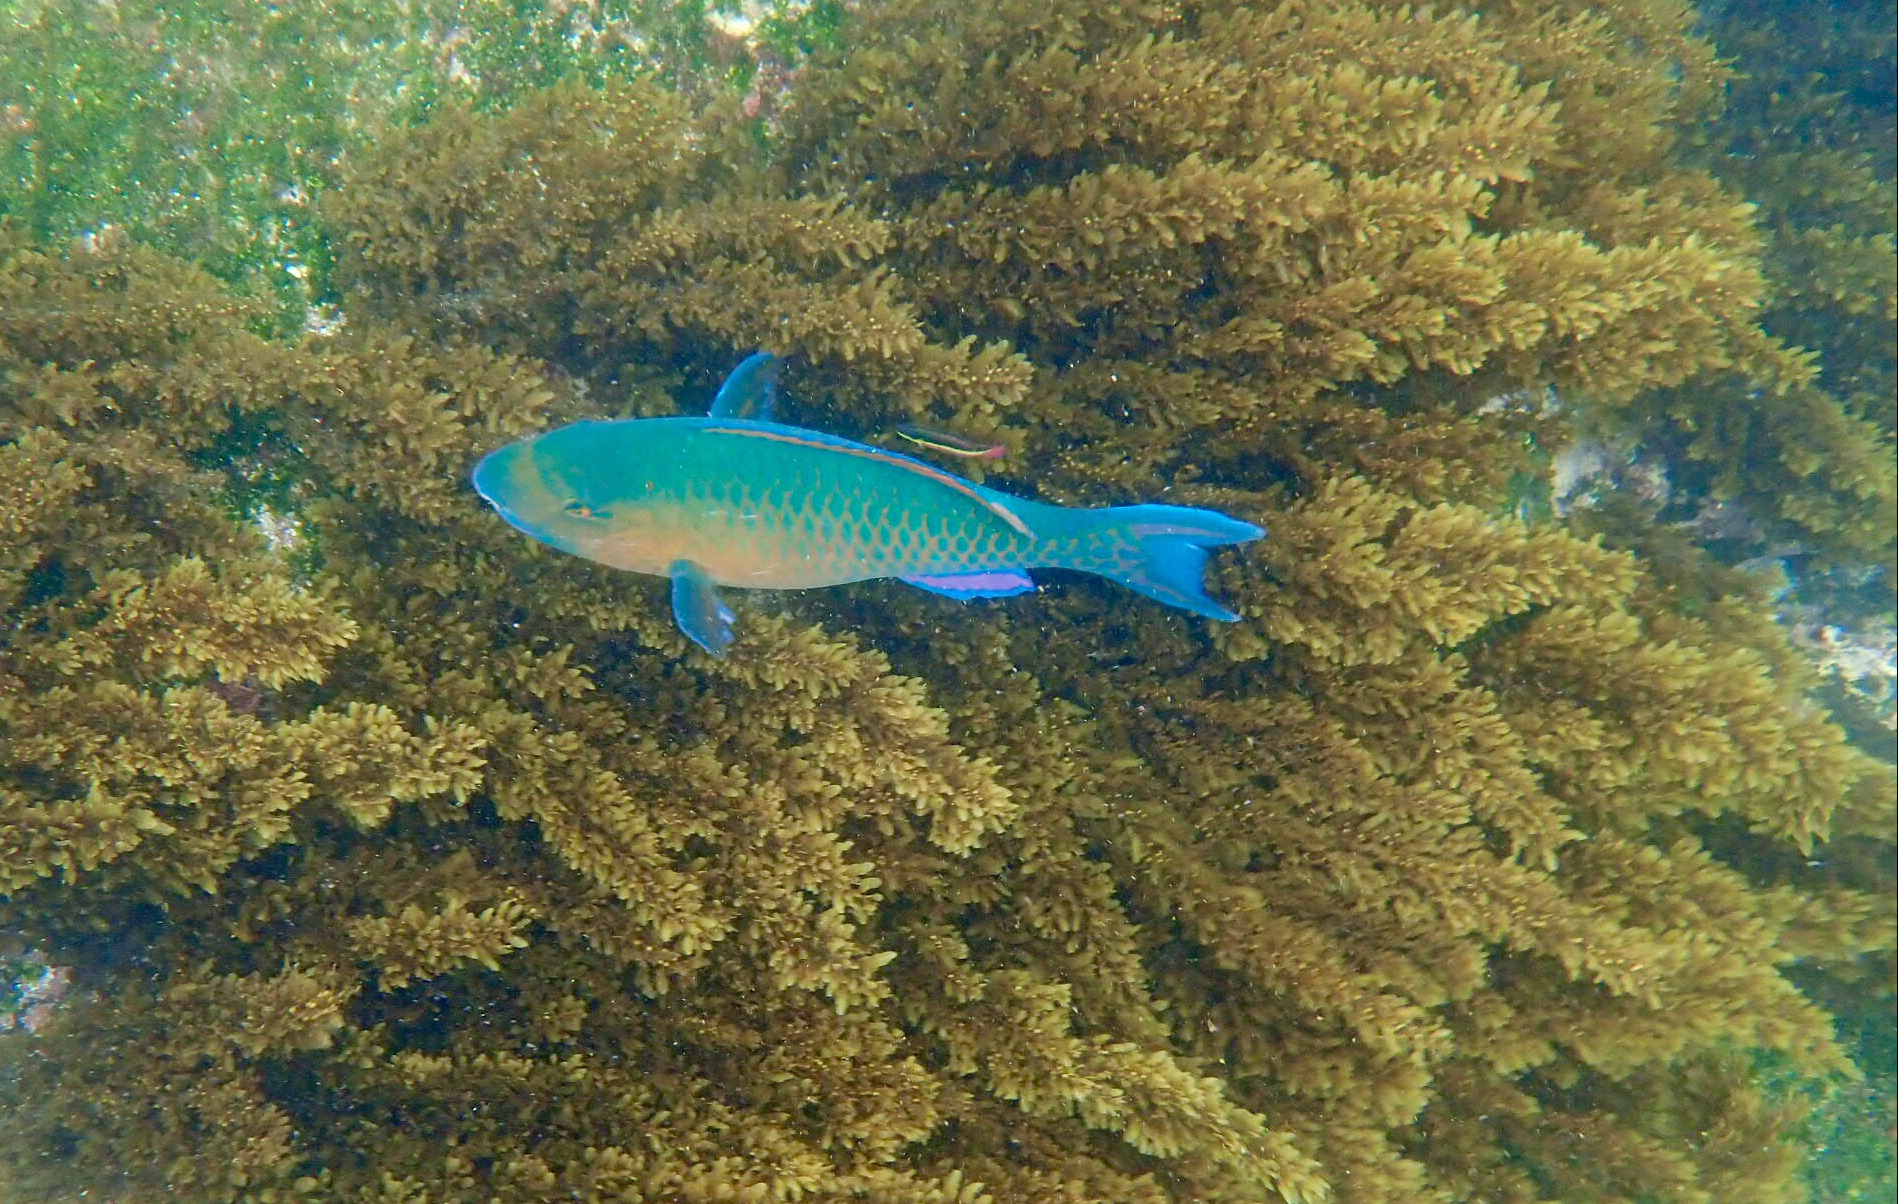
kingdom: Animalia
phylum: Chordata
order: Perciformes
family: Scaridae
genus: Scarus
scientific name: Scarus ghobban
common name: Blue-barred parrotfish
